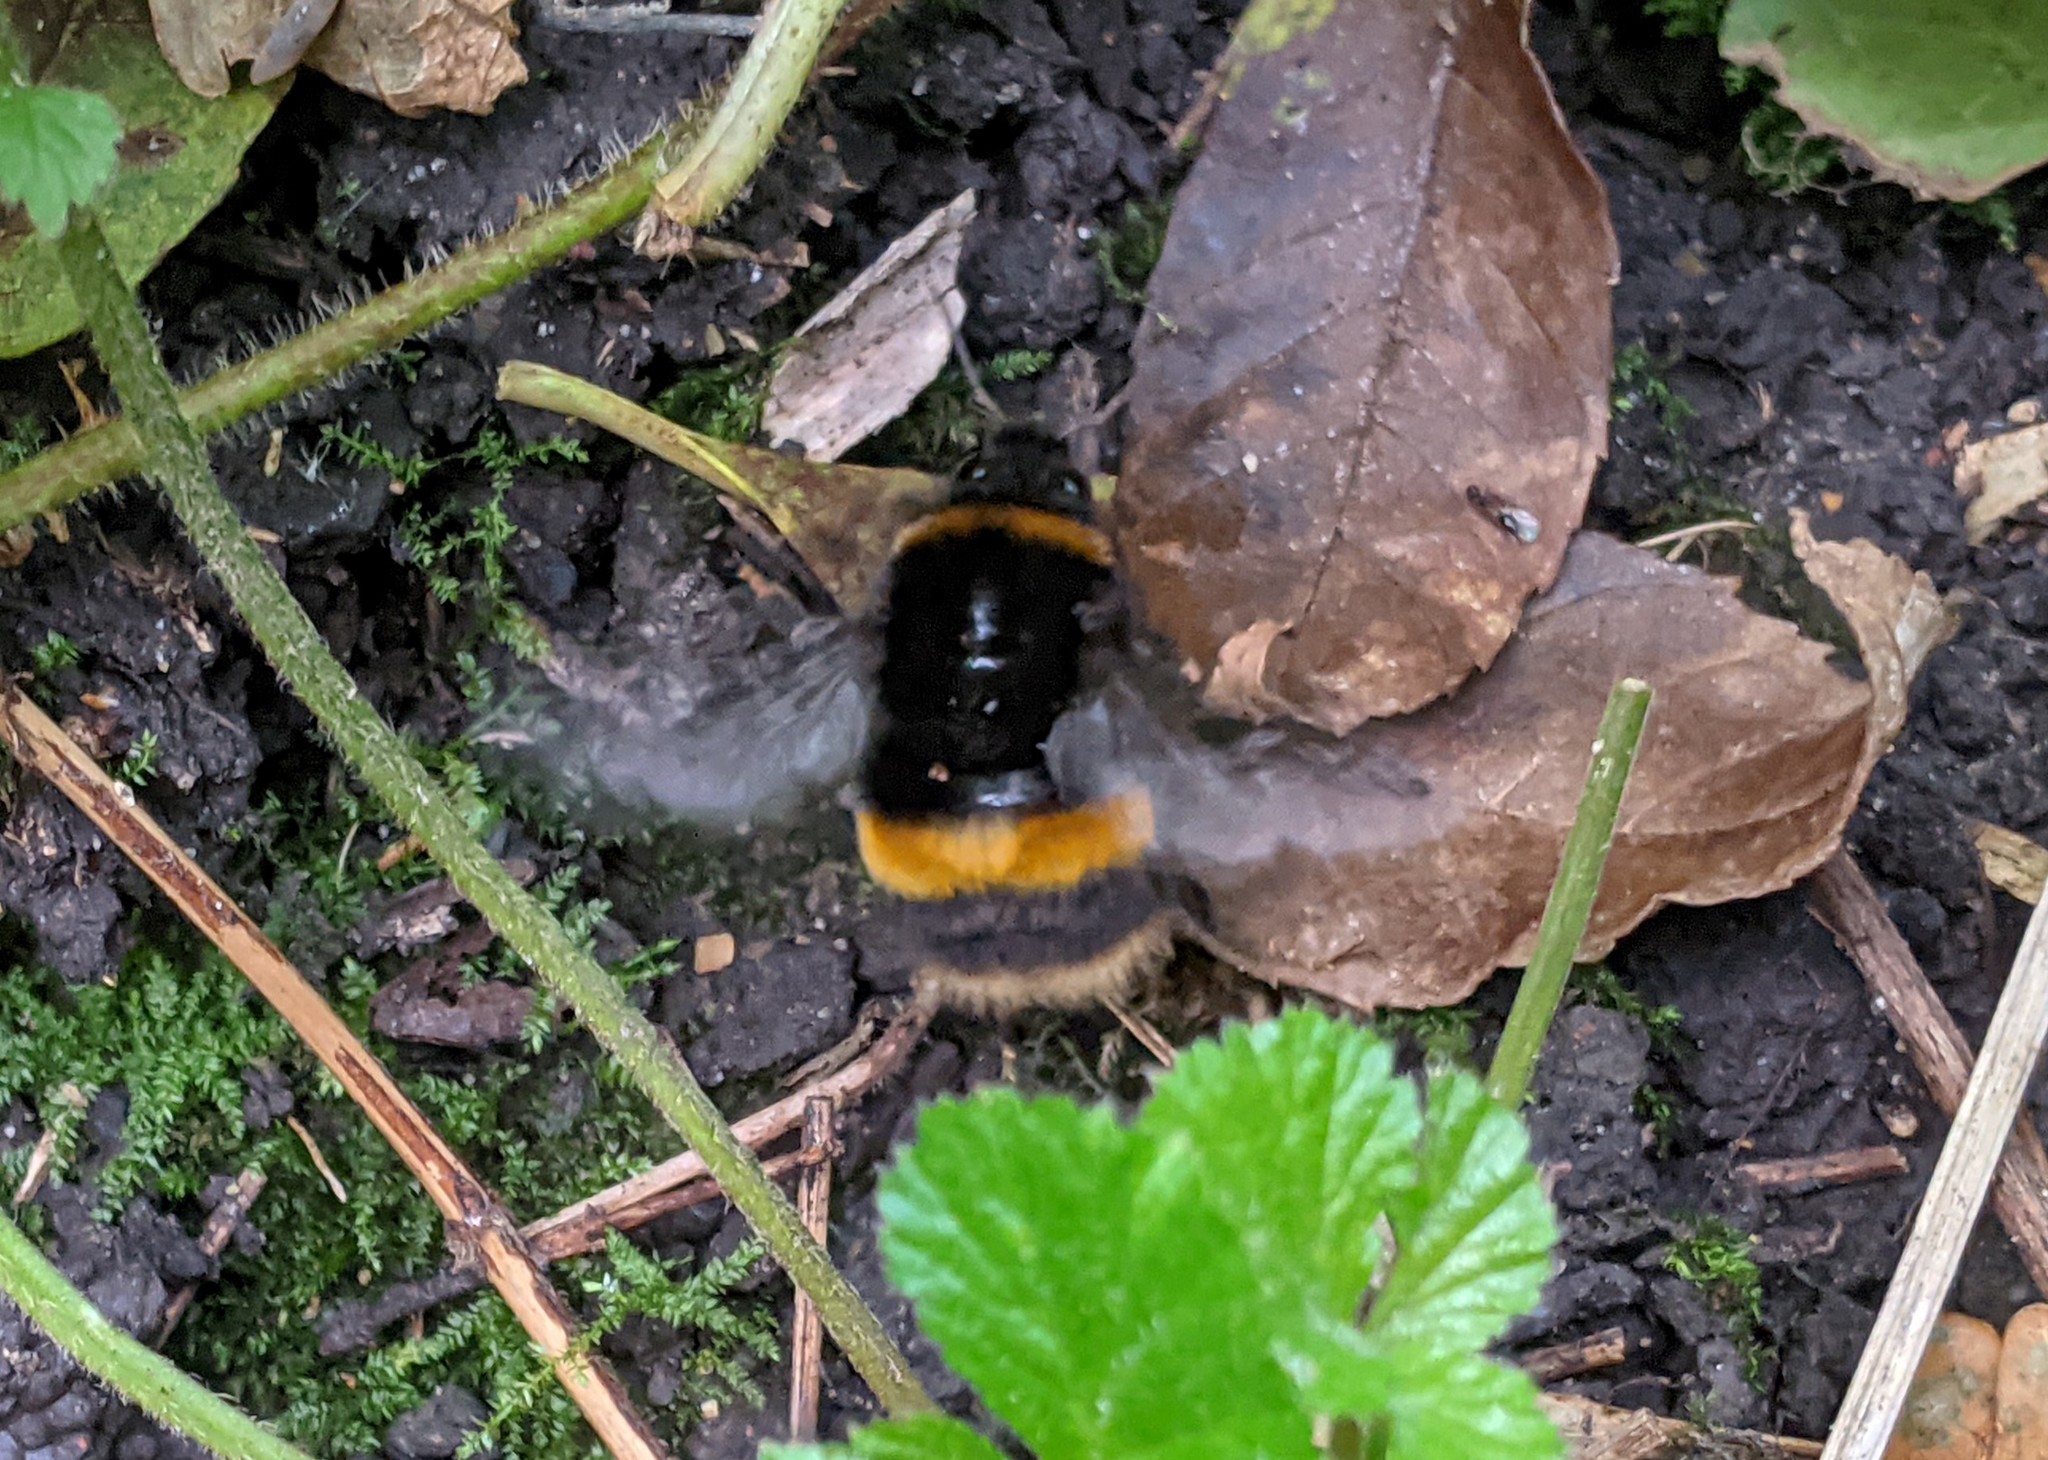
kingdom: Animalia
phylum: Arthropoda
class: Insecta
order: Hymenoptera
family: Apidae
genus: Bombus
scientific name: Bombus terrestris
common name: Buff-tailed bumblebee
